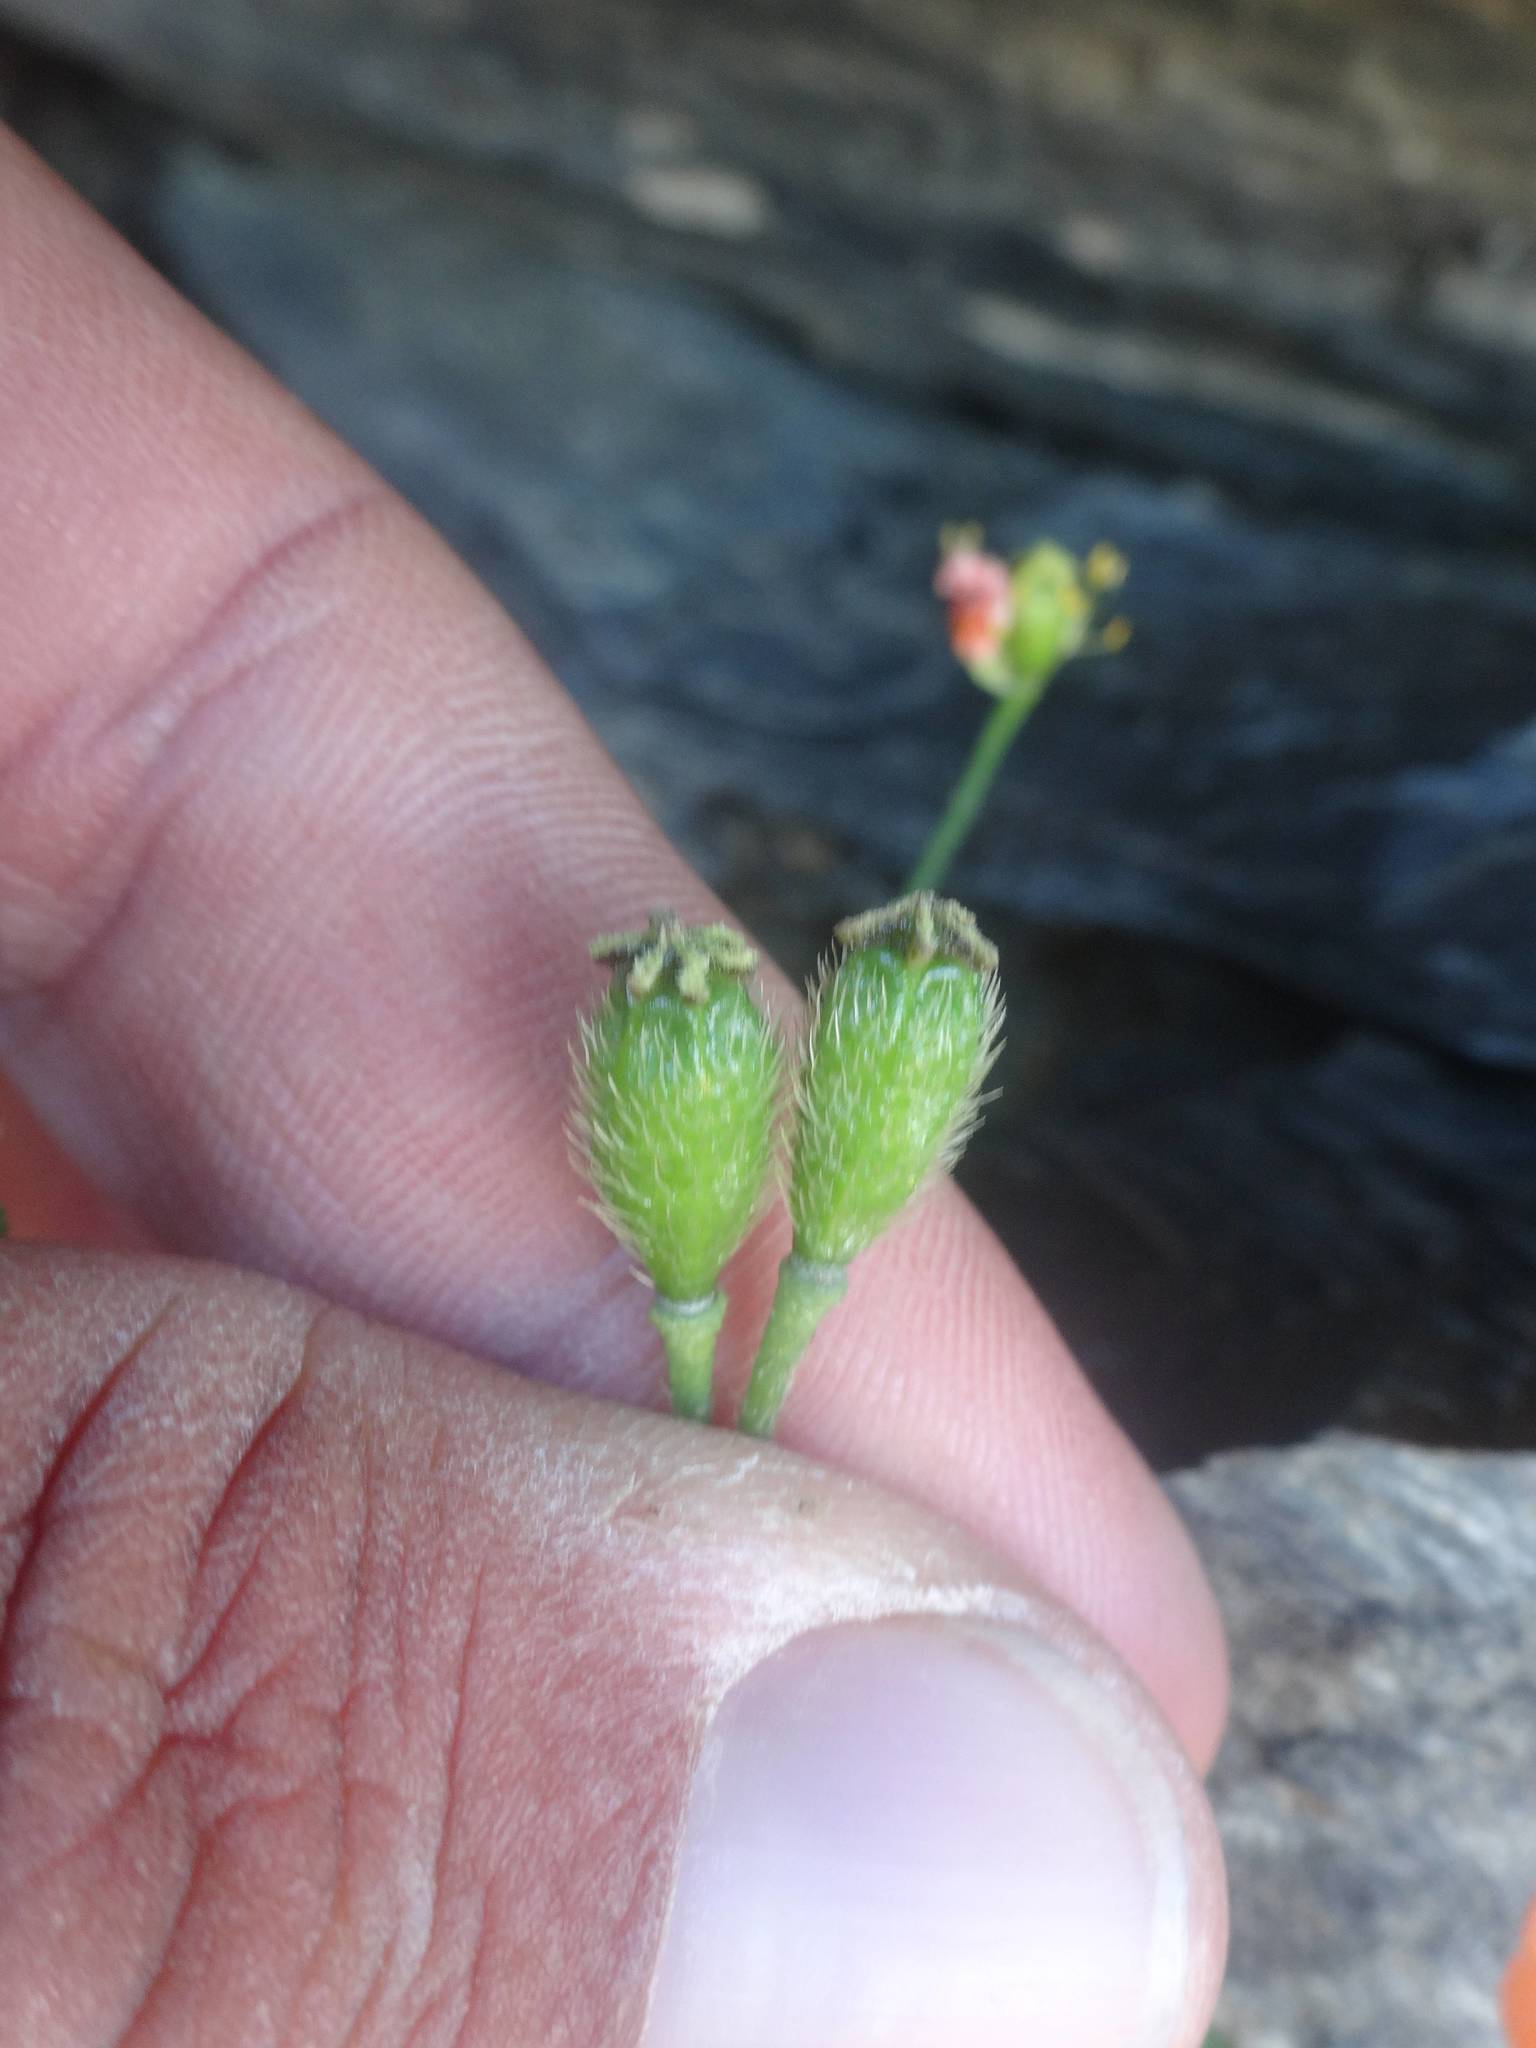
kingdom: Plantae
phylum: Tracheophyta
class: Magnoliopsida
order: Ranunculales
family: Papaveraceae
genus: Papaver
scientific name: Papaver alpinum
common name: Austrian poppy
